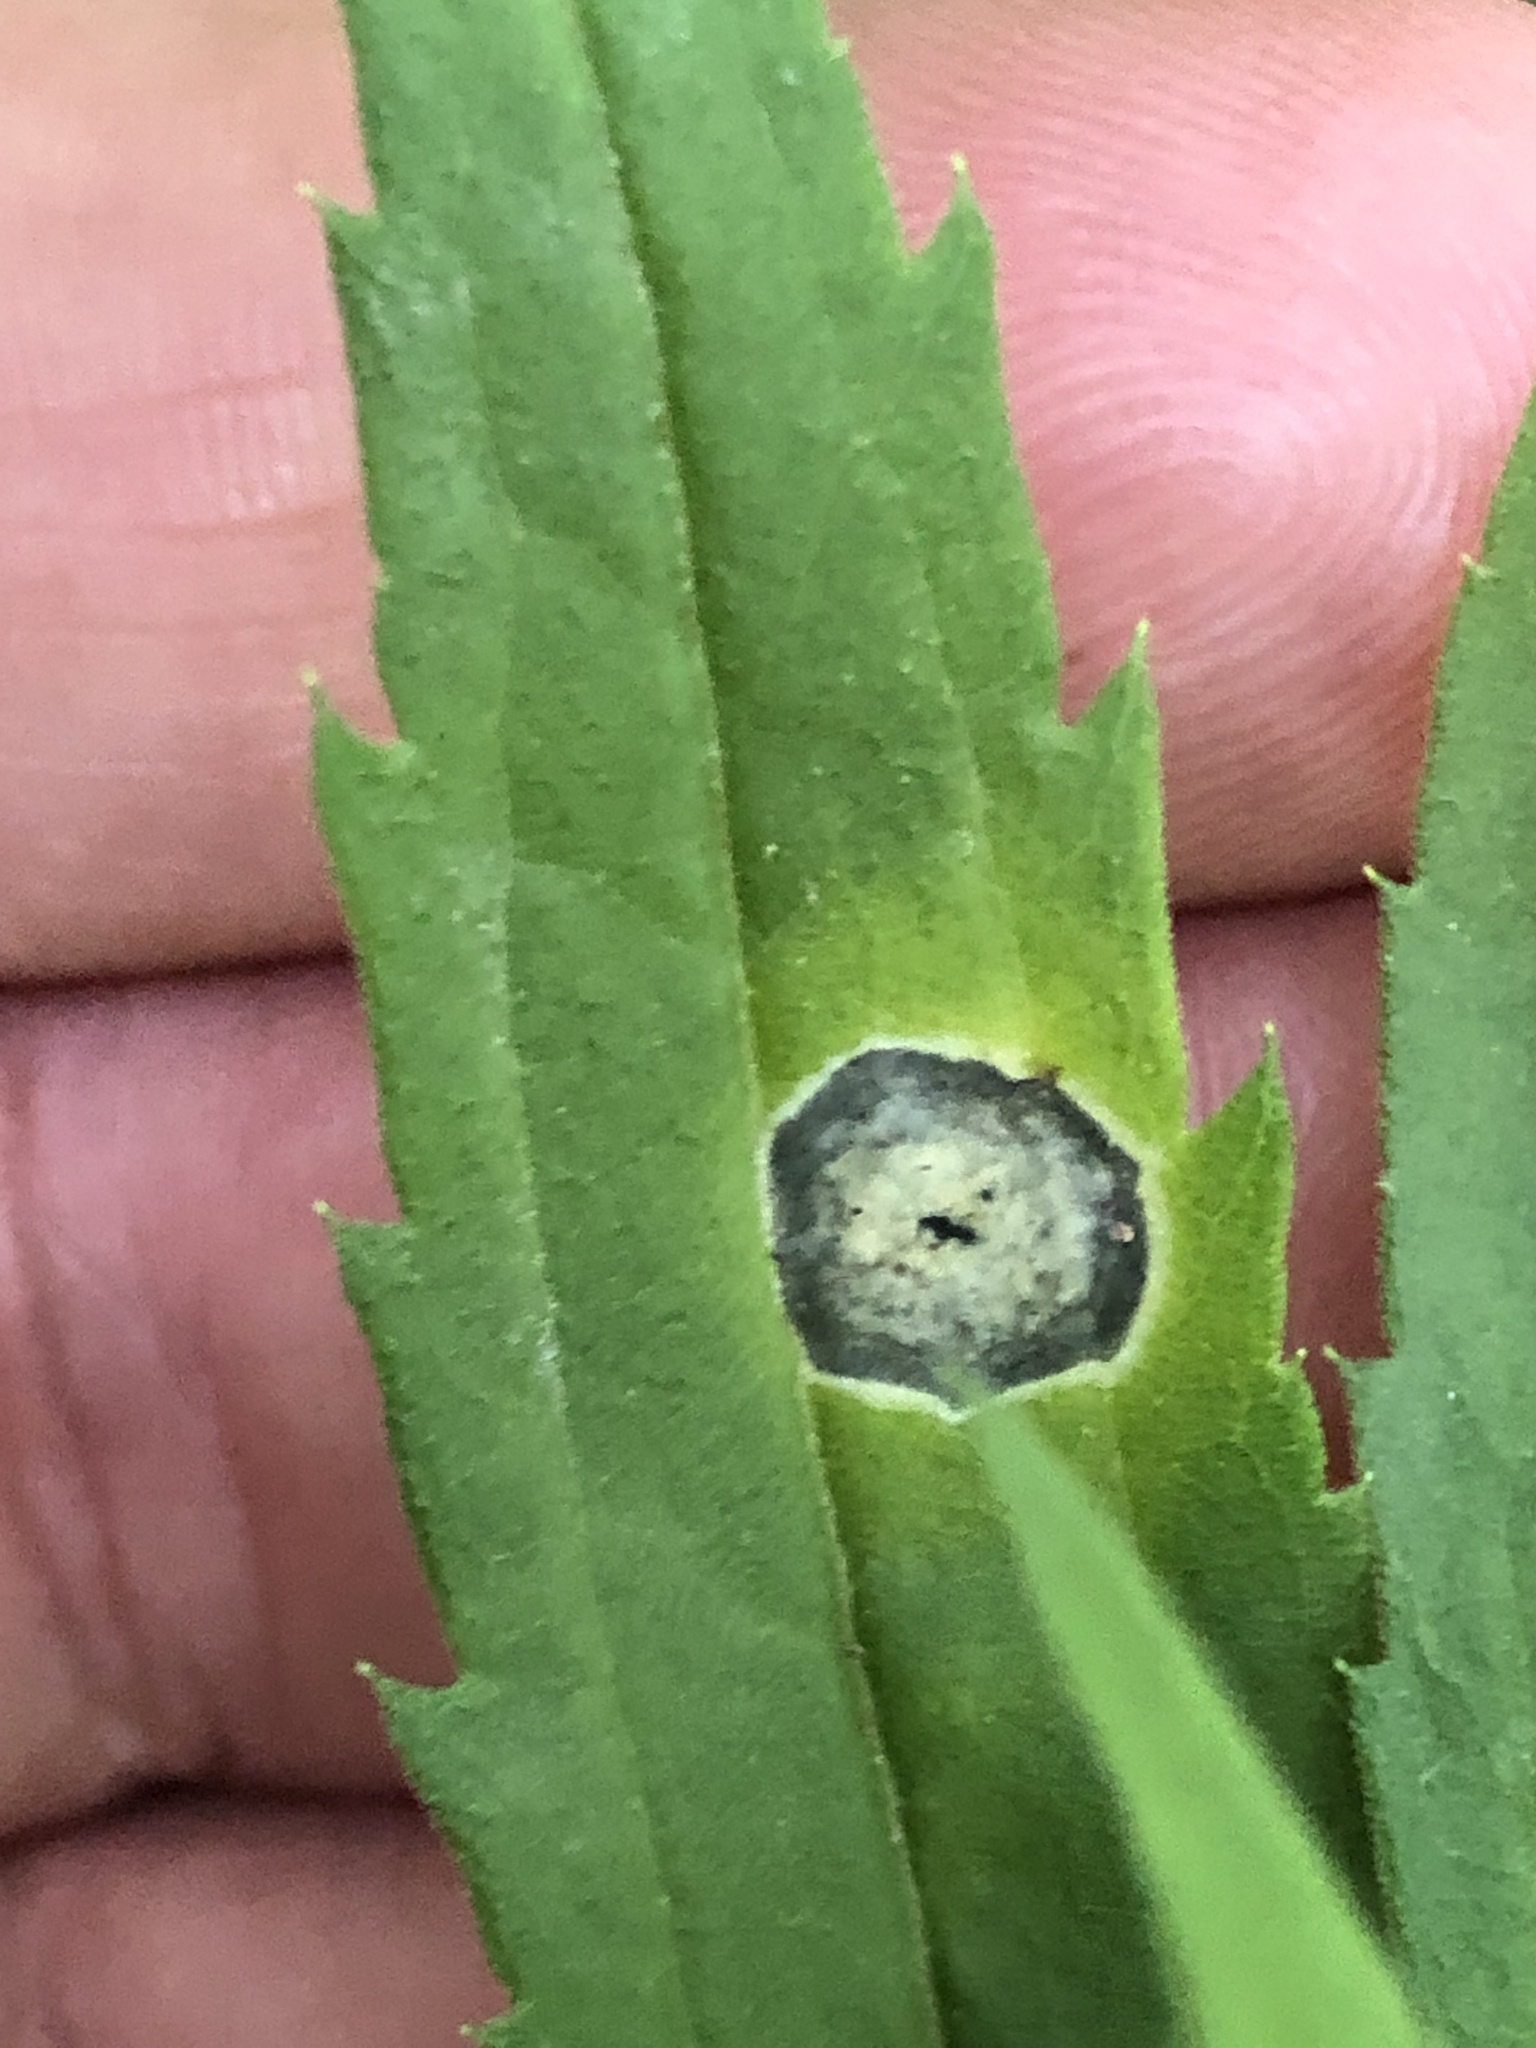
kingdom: Animalia
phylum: Arthropoda
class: Insecta
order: Diptera
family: Cecidomyiidae
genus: Asteromyia
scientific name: Asteromyia carbonifera
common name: Carbonifera goldenrod gall midge
